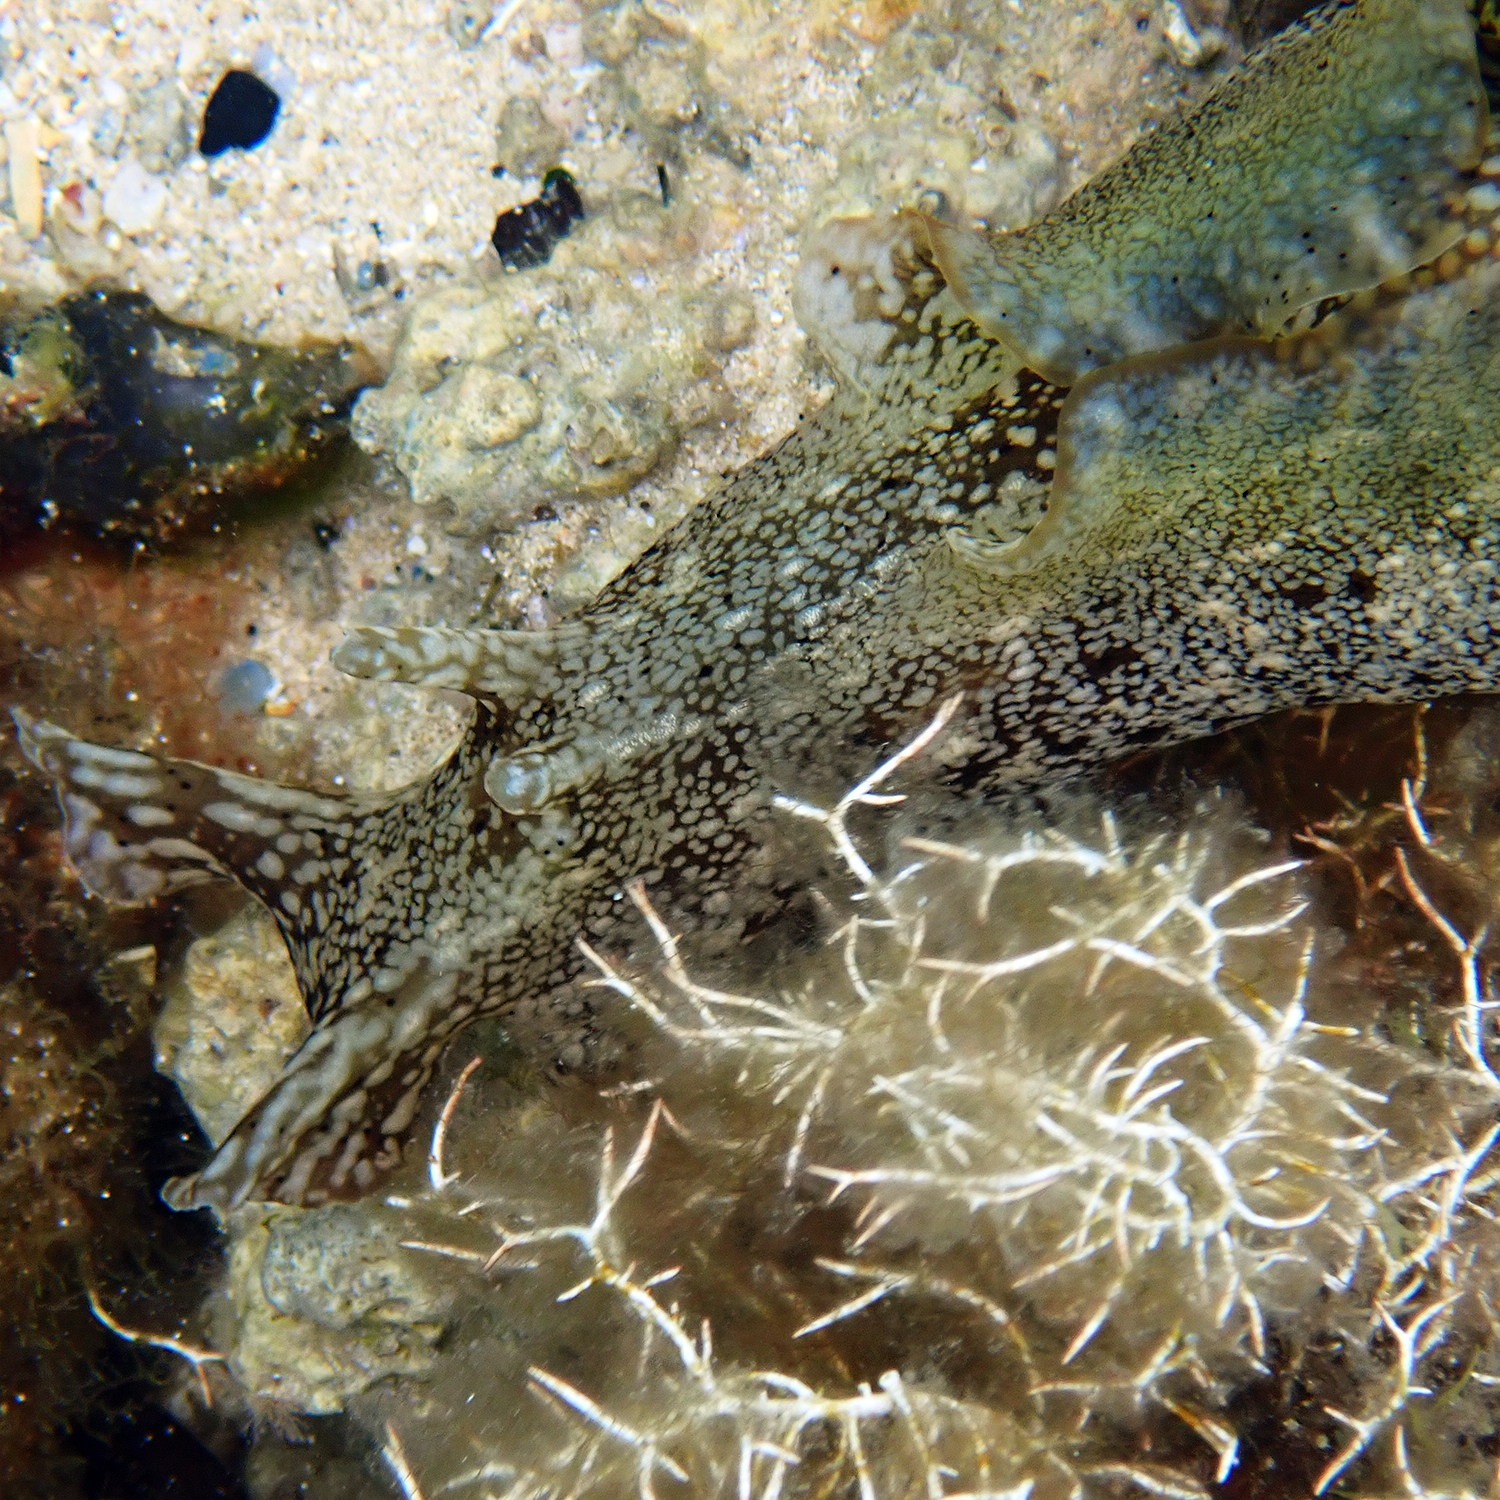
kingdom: Animalia
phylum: Mollusca
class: Gastropoda
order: Aplysiida
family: Aplysiidae
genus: Aplysia
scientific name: Aplysia reticulata
